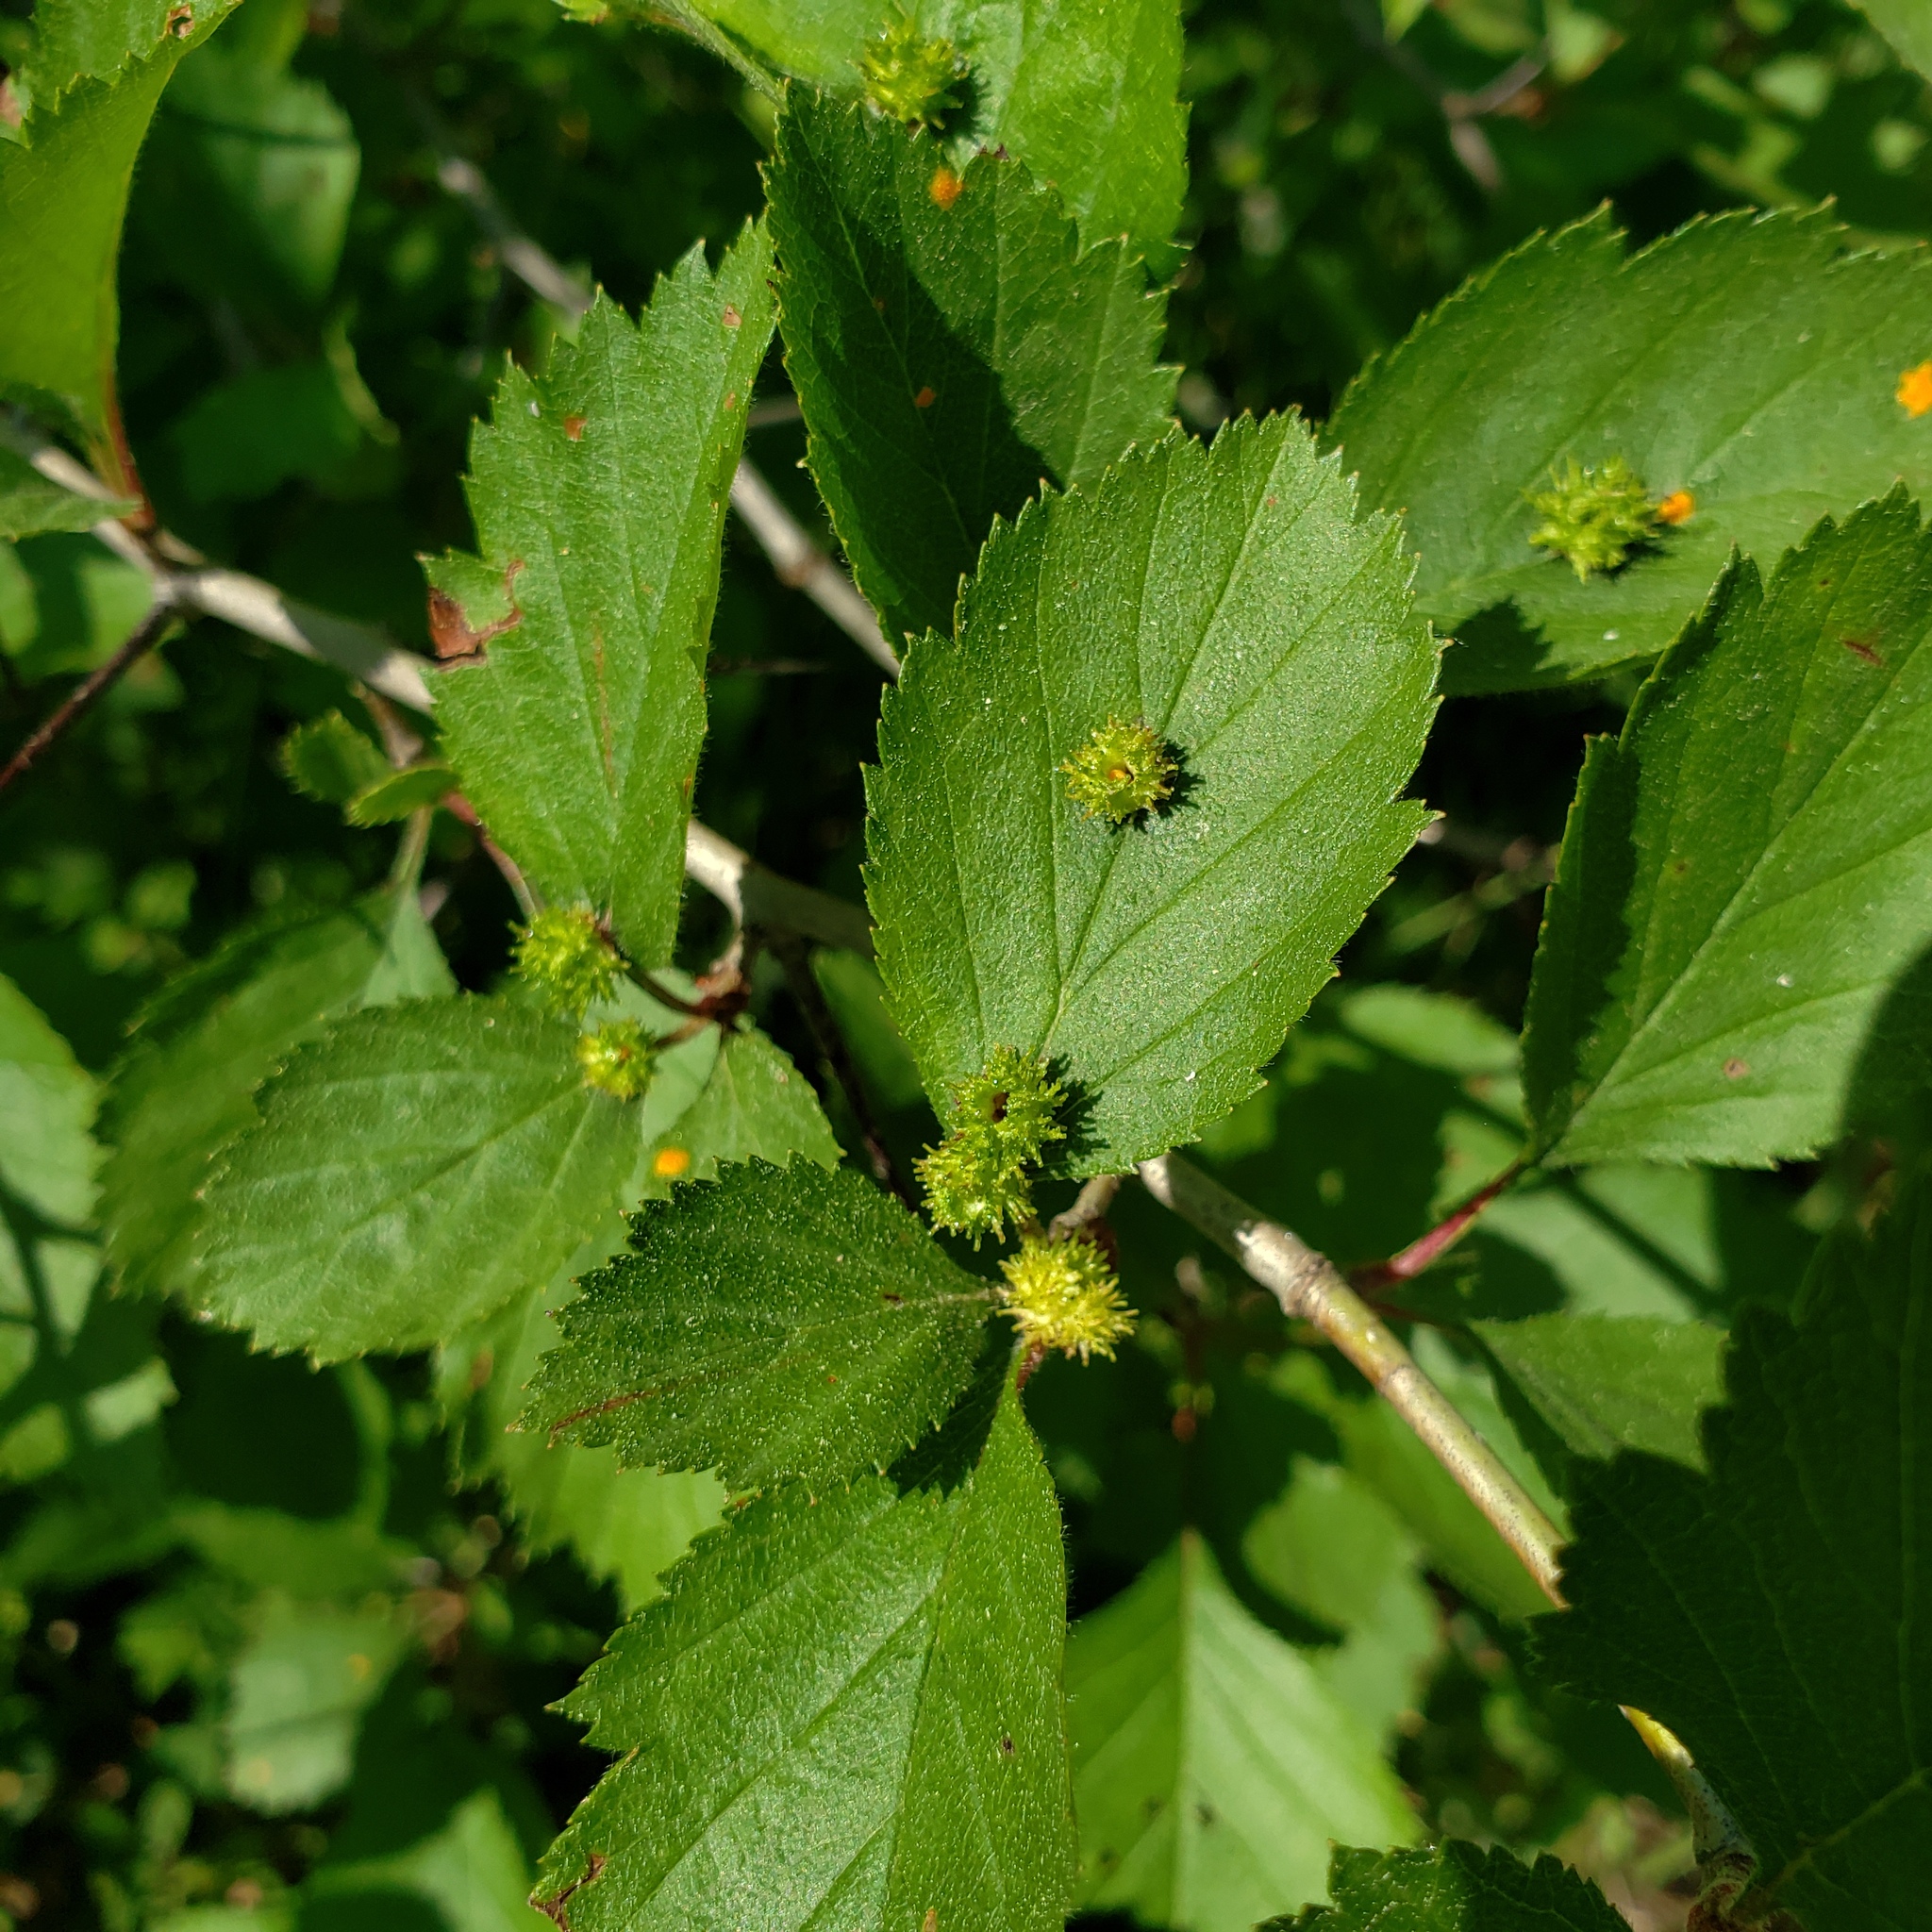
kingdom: Animalia
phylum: Arthropoda
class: Insecta
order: Diptera
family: Cecidomyiidae
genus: Blaesodiplosis
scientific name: Blaesodiplosis crataegibedeguar
